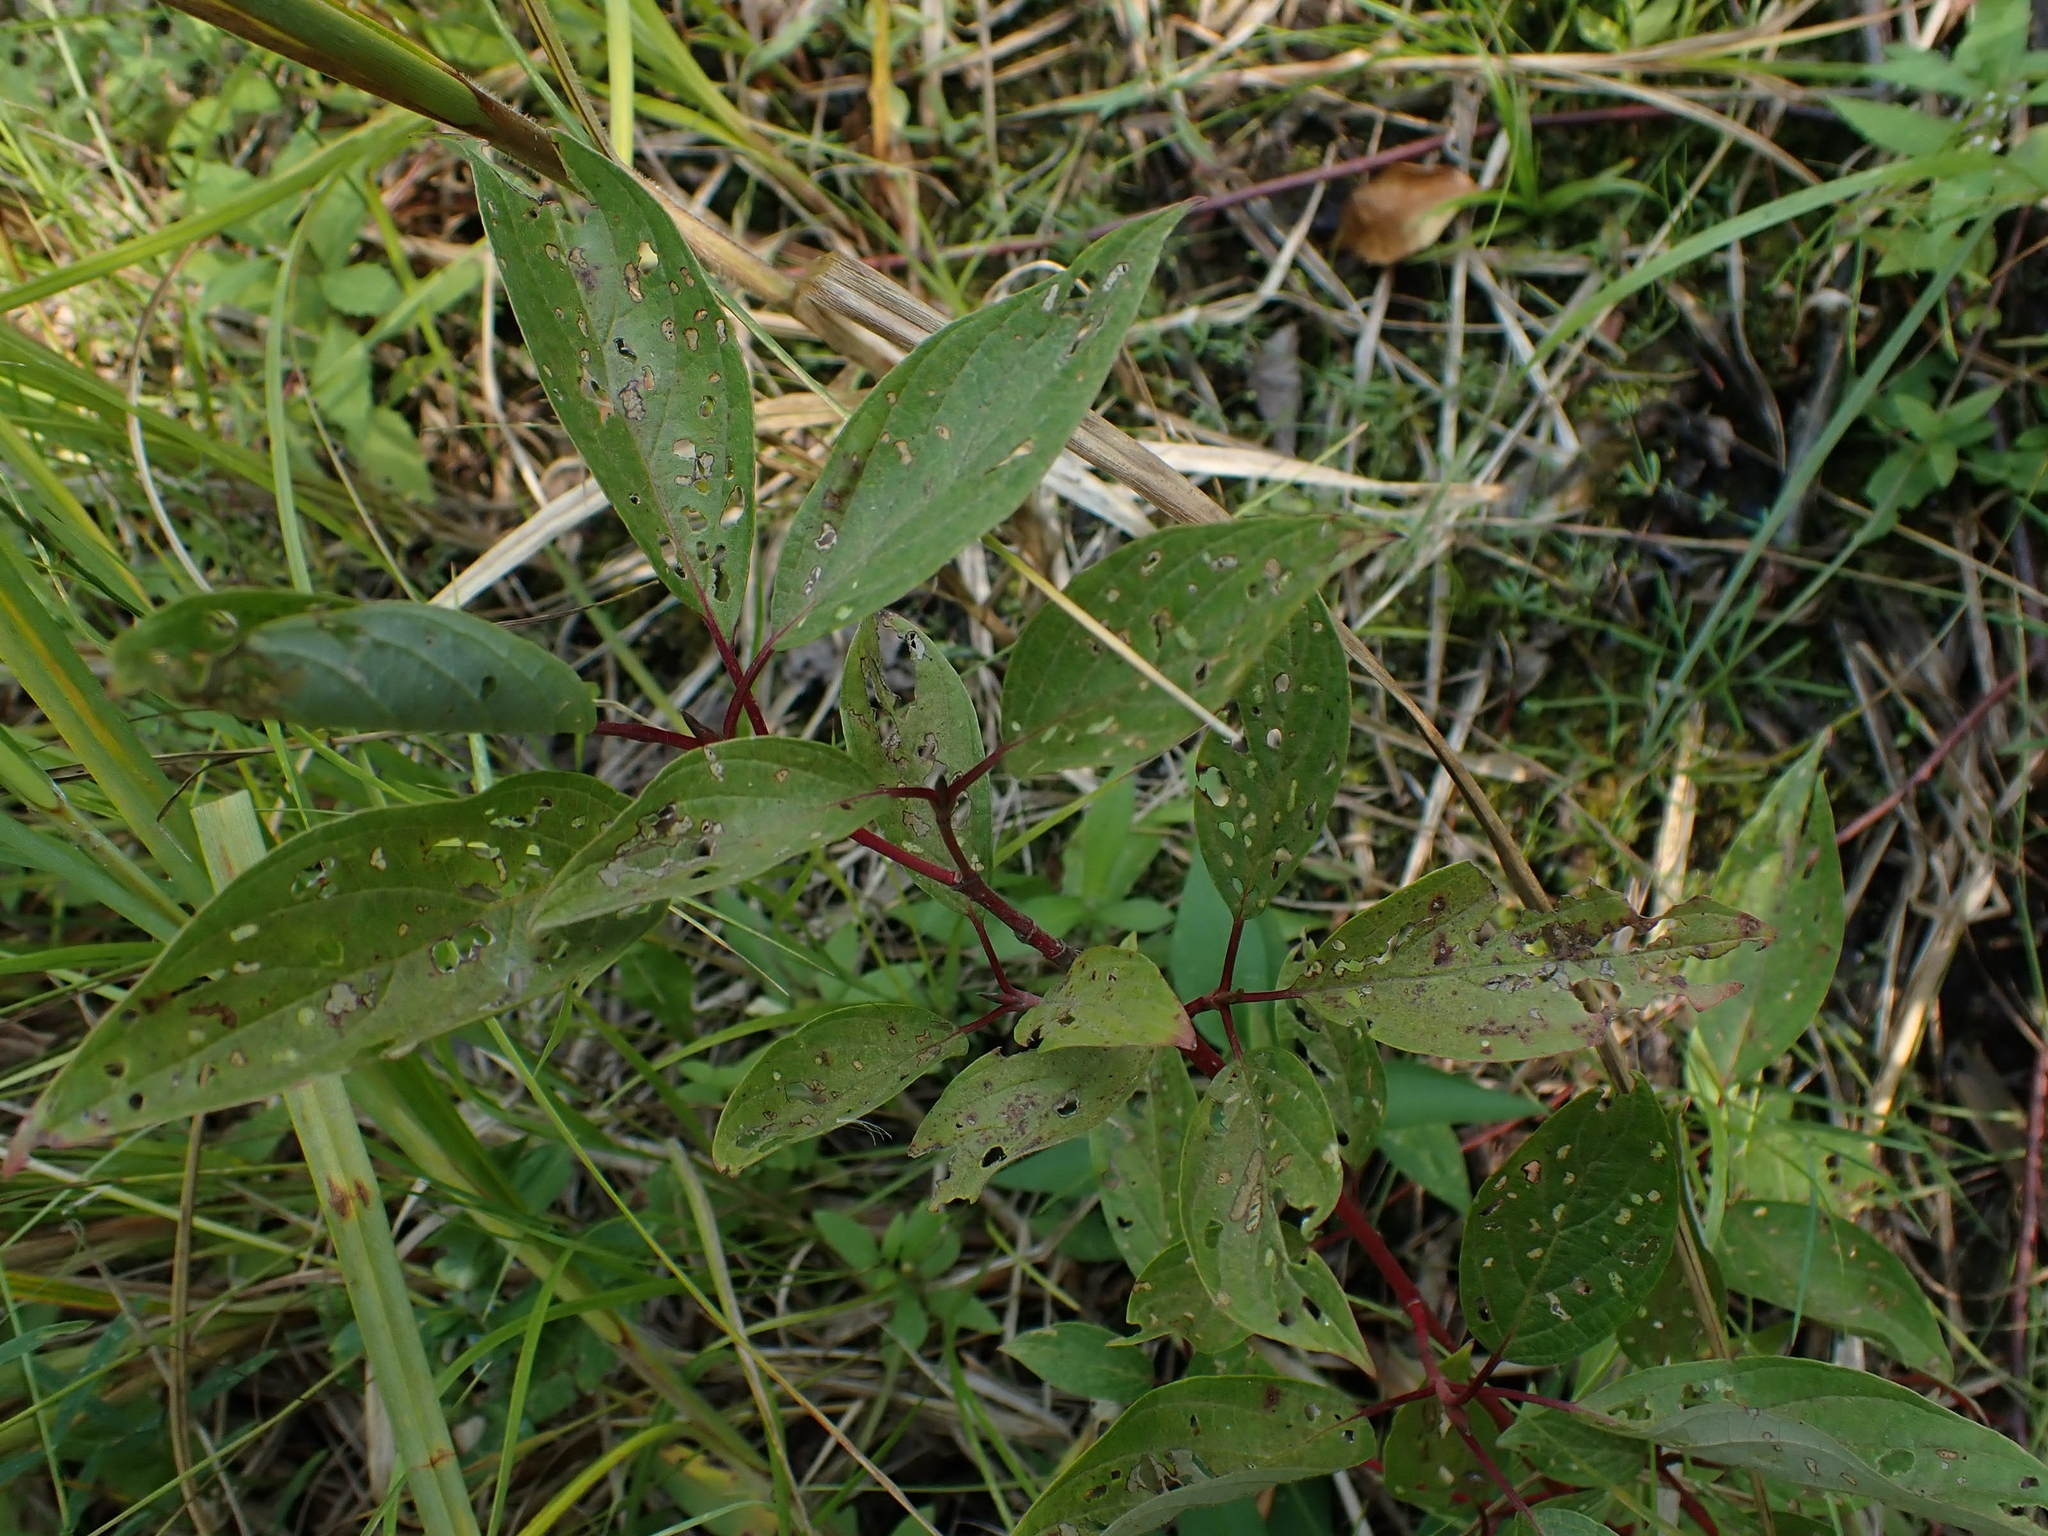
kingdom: Plantae
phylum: Tracheophyta
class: Magnoliopsida
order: Cornales
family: Cornaceae
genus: Cornus
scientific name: Cornus sericea
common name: Red-osier dogwood
